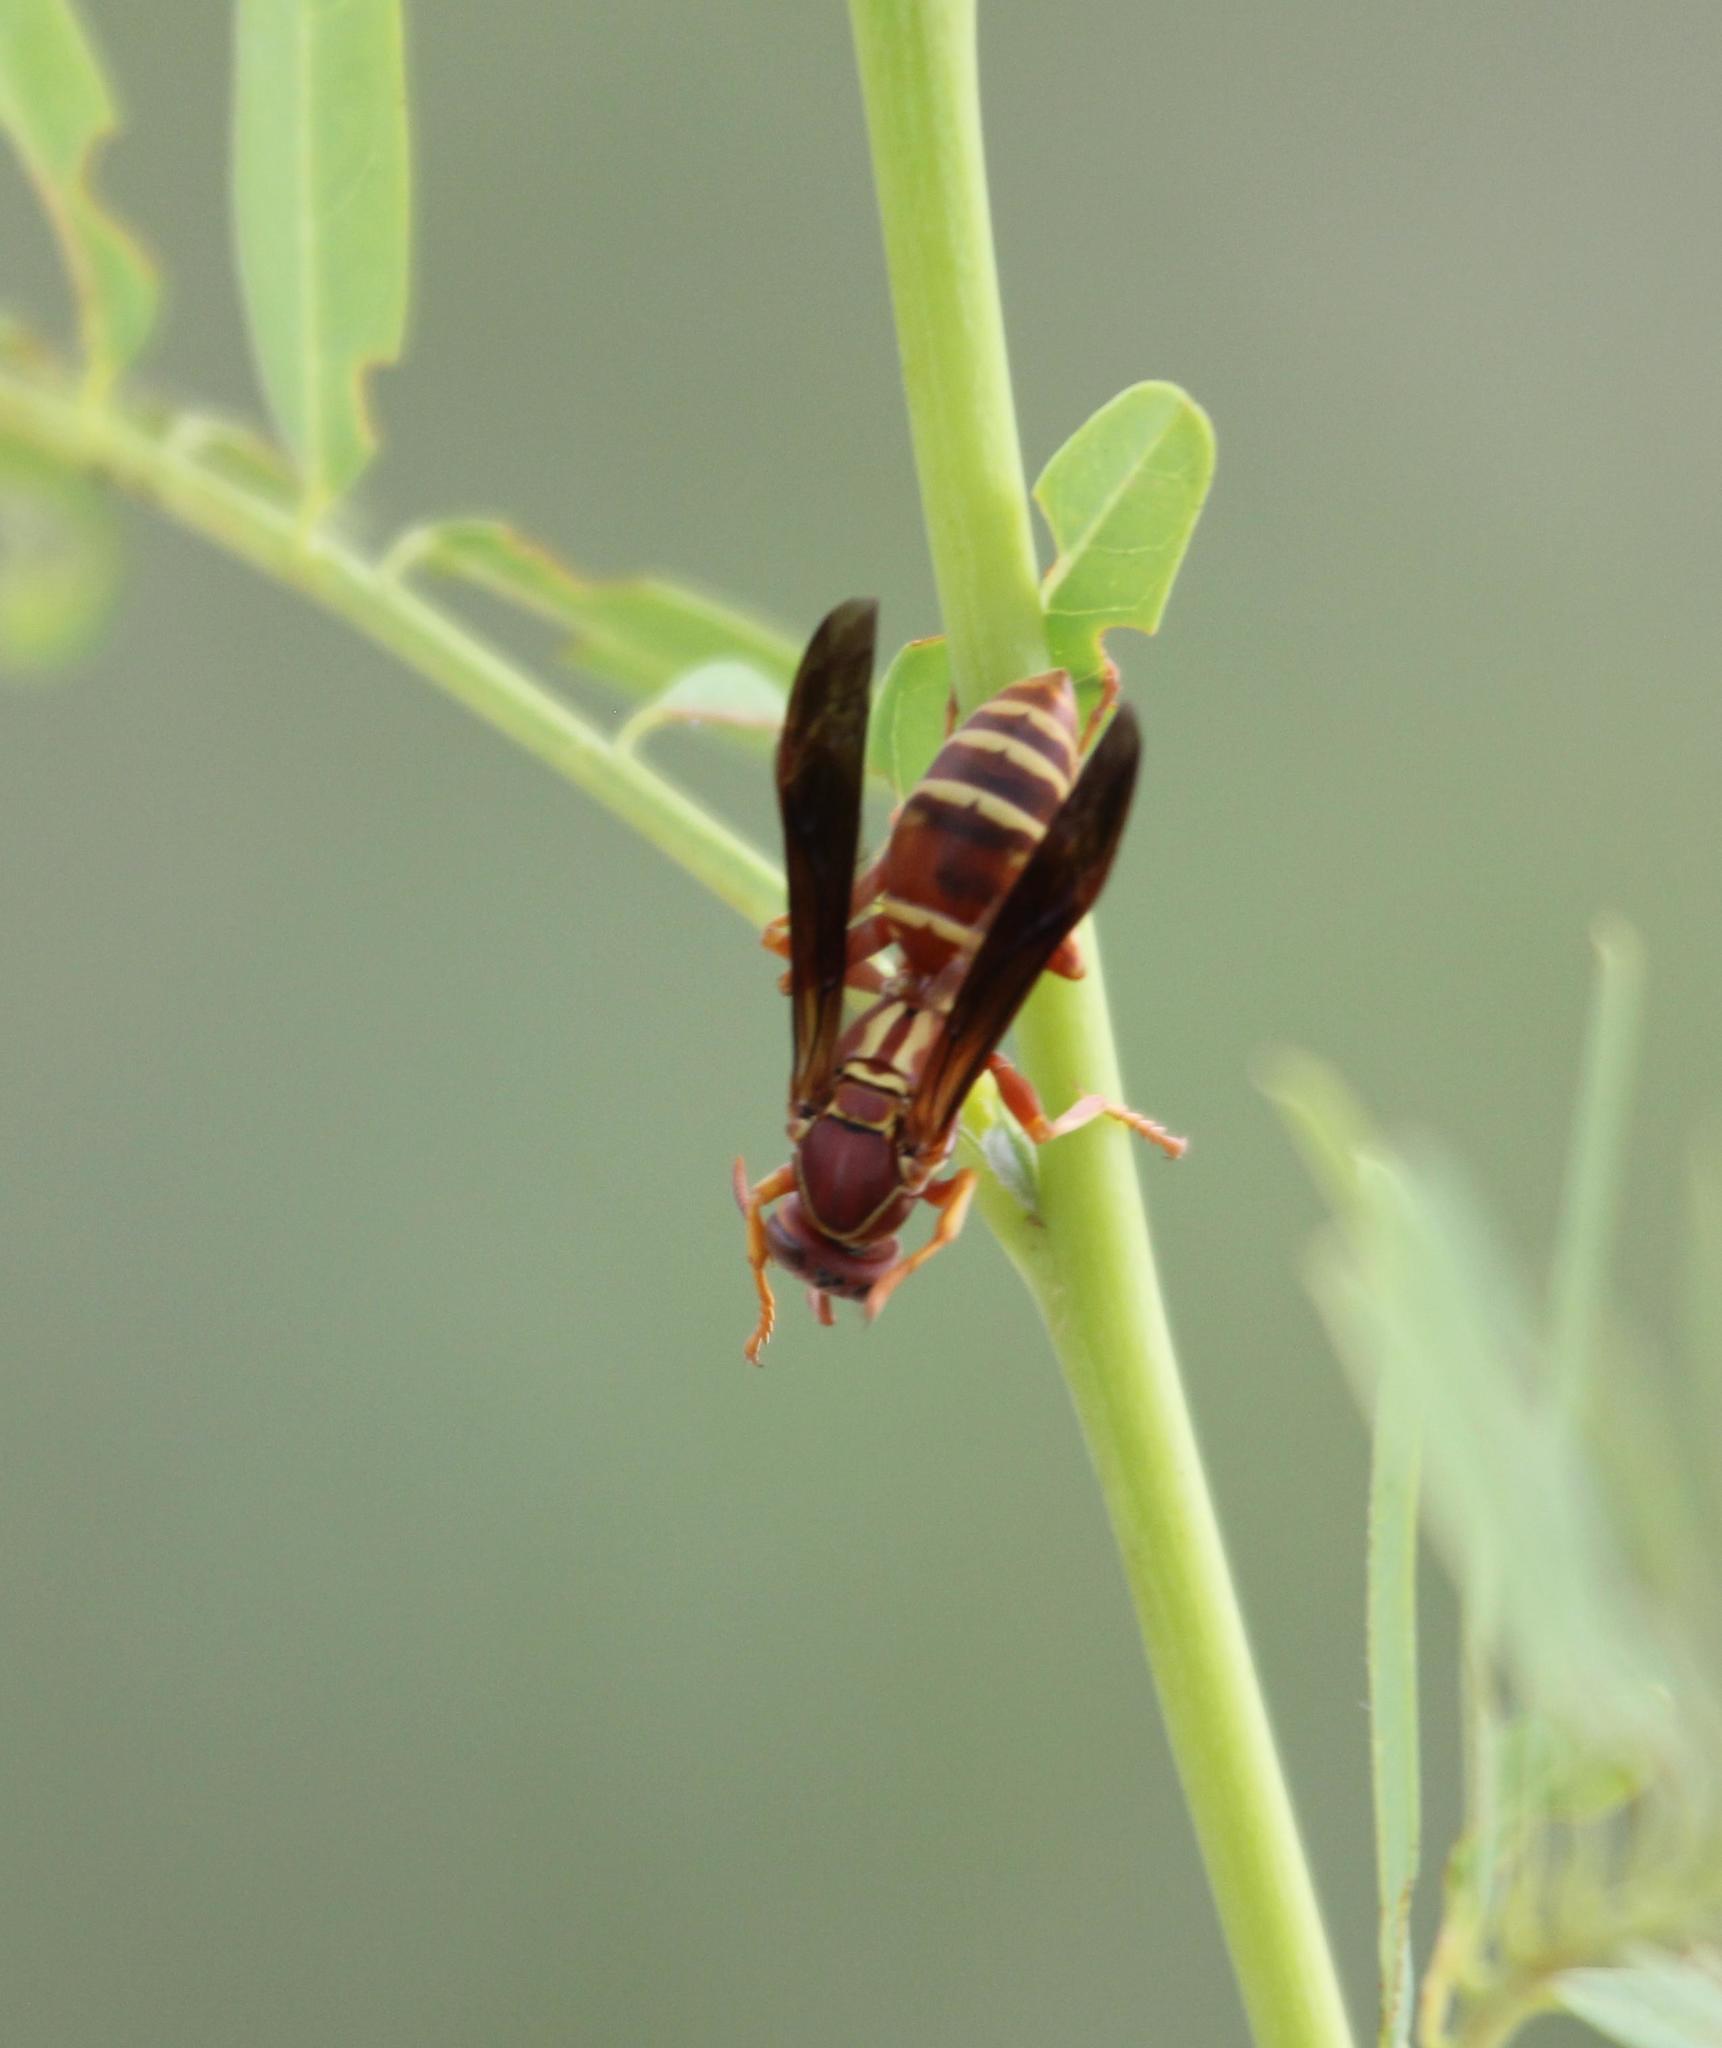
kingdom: Animalia
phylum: Arthropoda
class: Insecta
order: Hymenoptera
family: Eumenidae
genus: Polistes
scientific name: Polistes bellicosus
